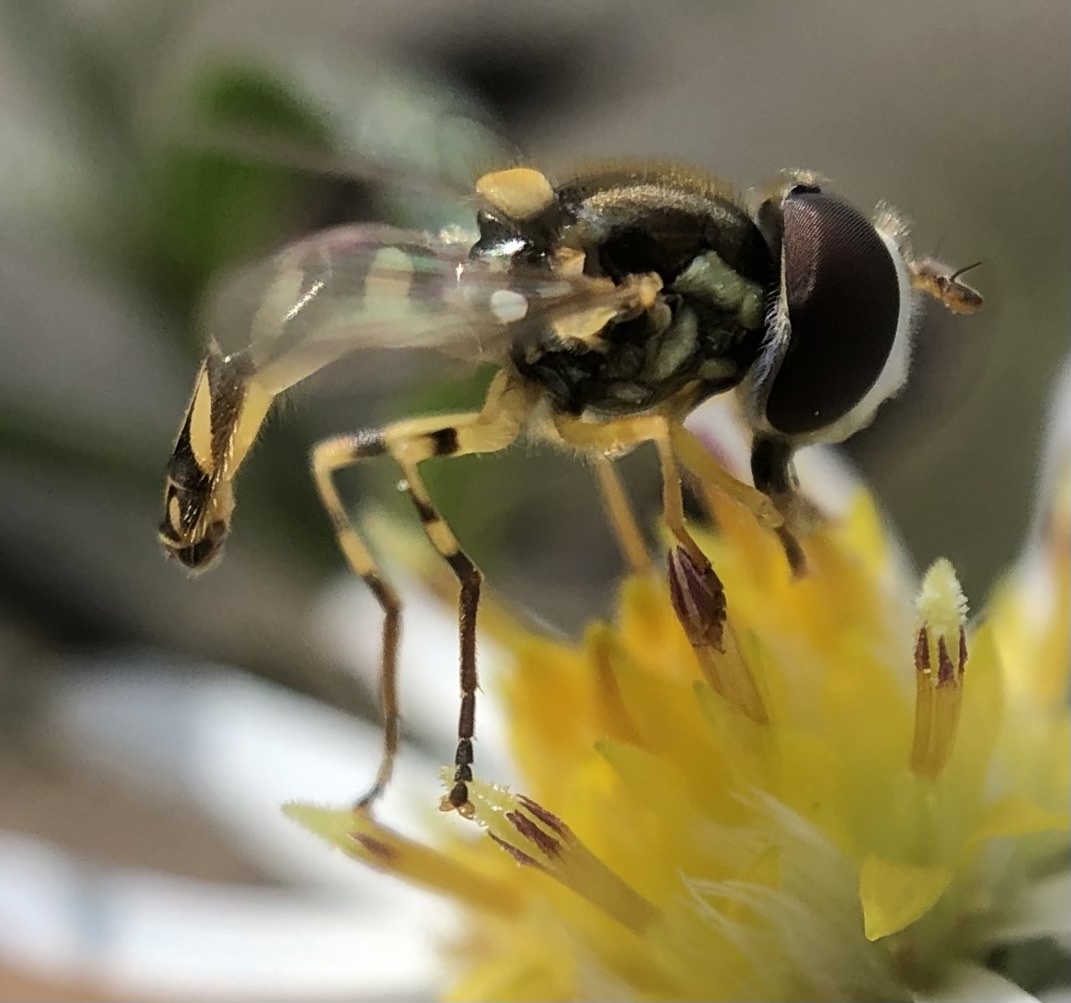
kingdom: Animalia
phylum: Arthropoda
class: Insecta
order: Diptera
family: Syrphidae
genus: Allograpta
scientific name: Allograpta exotica
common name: Syrphid fly
